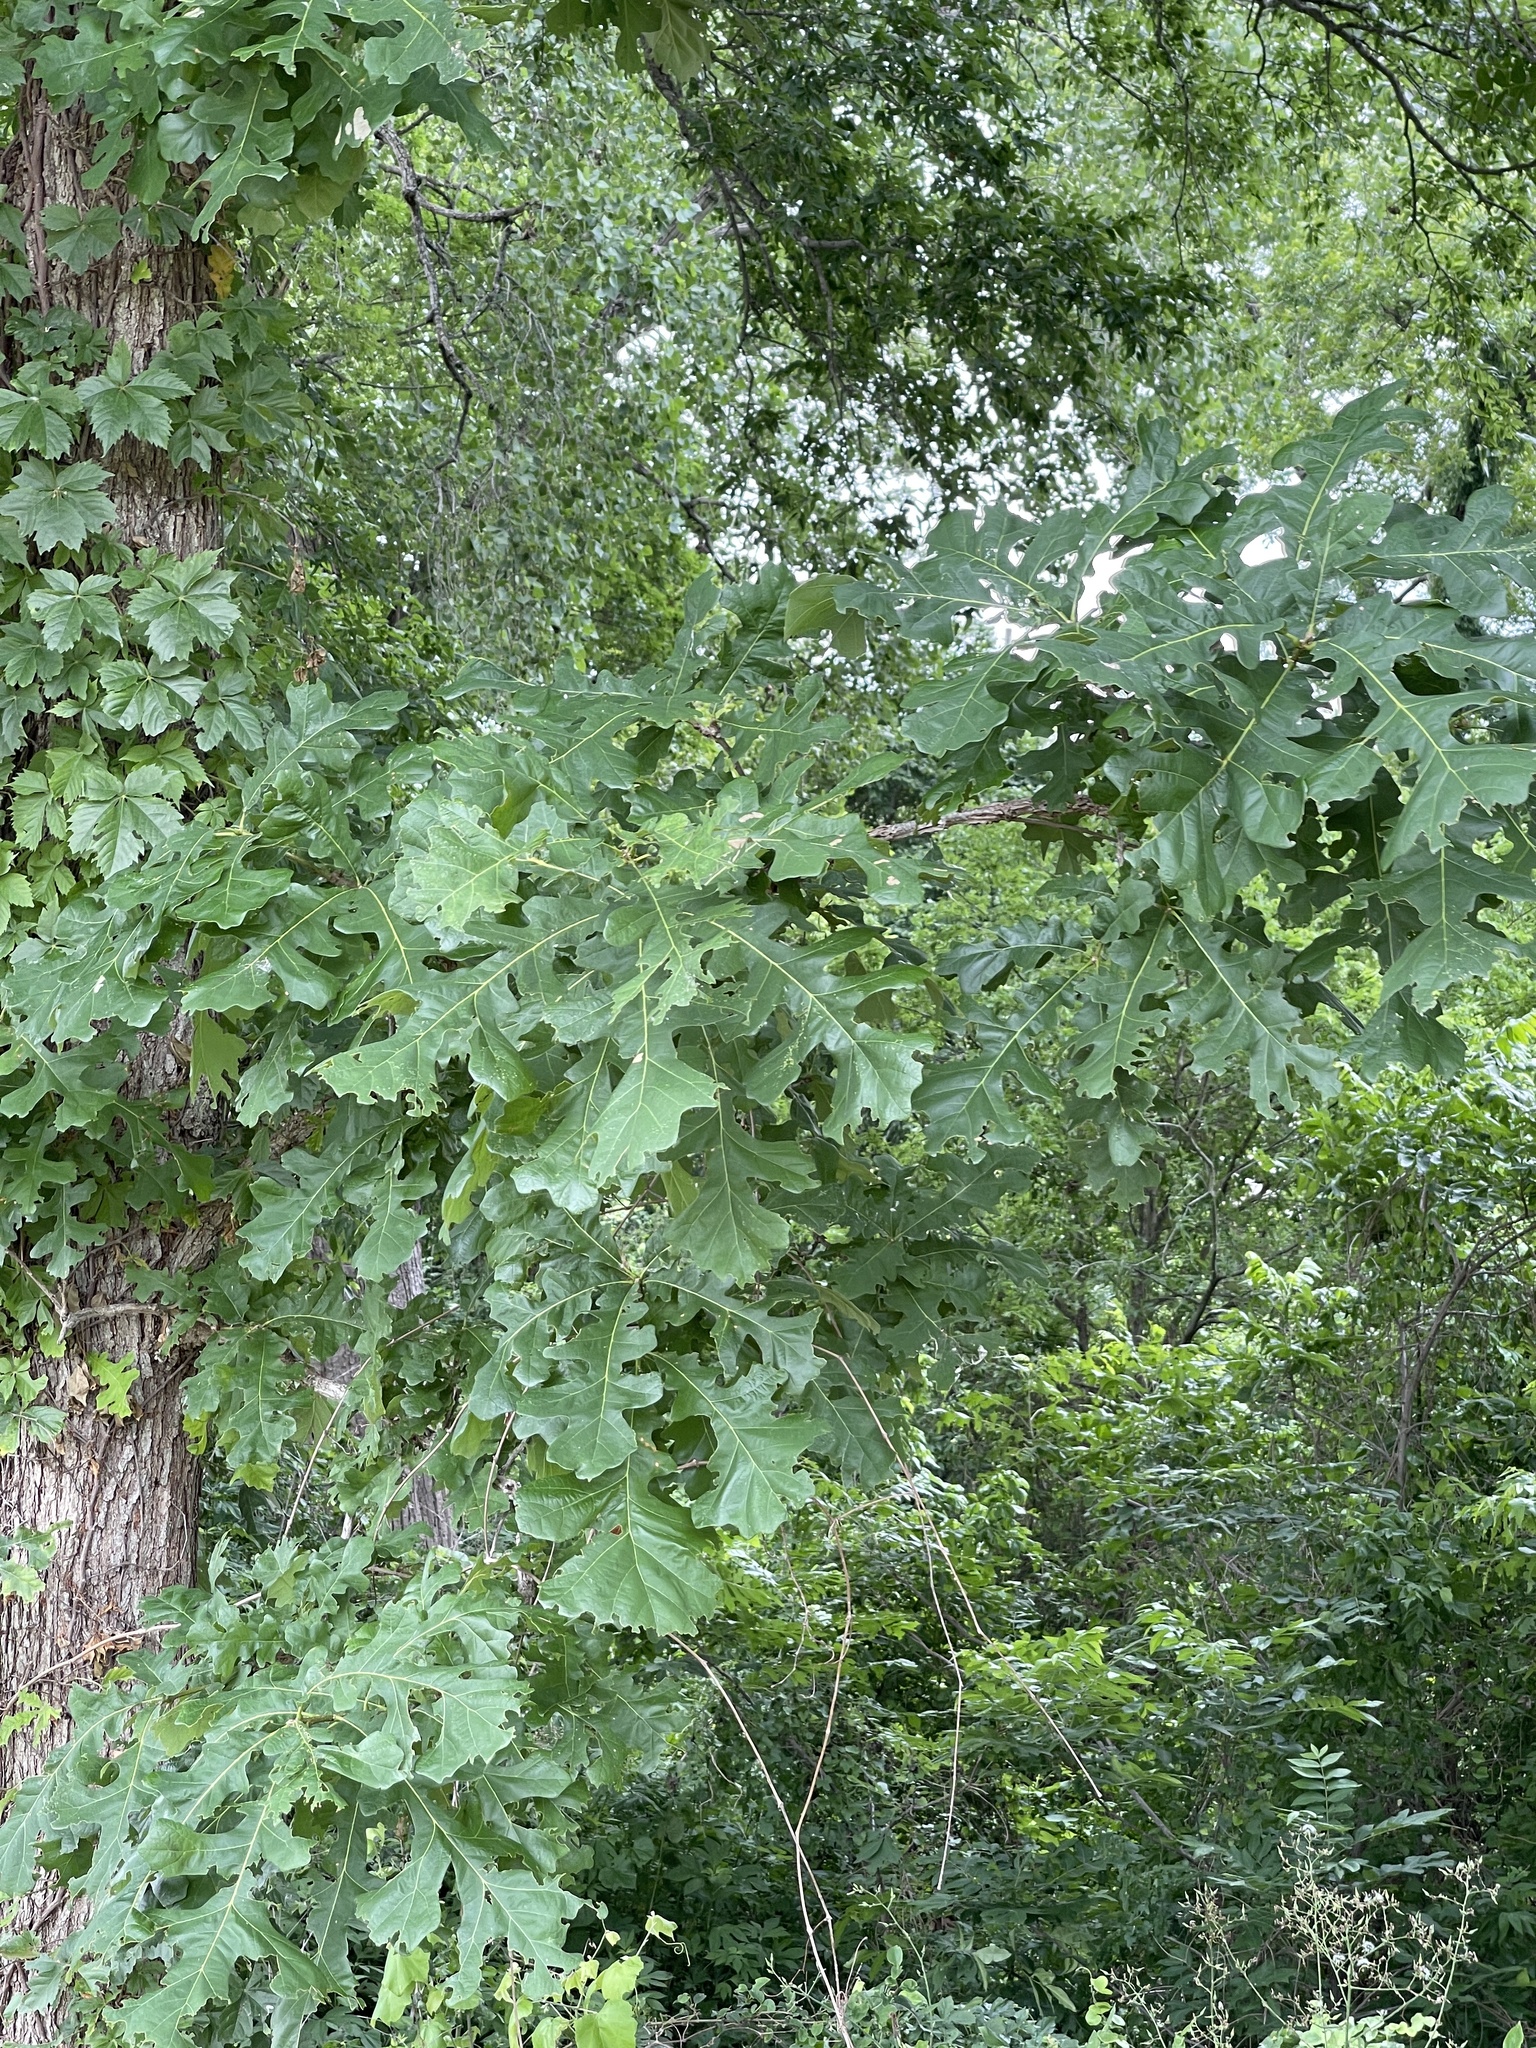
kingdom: Plantae
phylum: Tracheophyta
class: Magnoliopsida
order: Fagales
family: Fagaceae
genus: Quercus
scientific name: Quercus macrocarpa
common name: Bur oak
